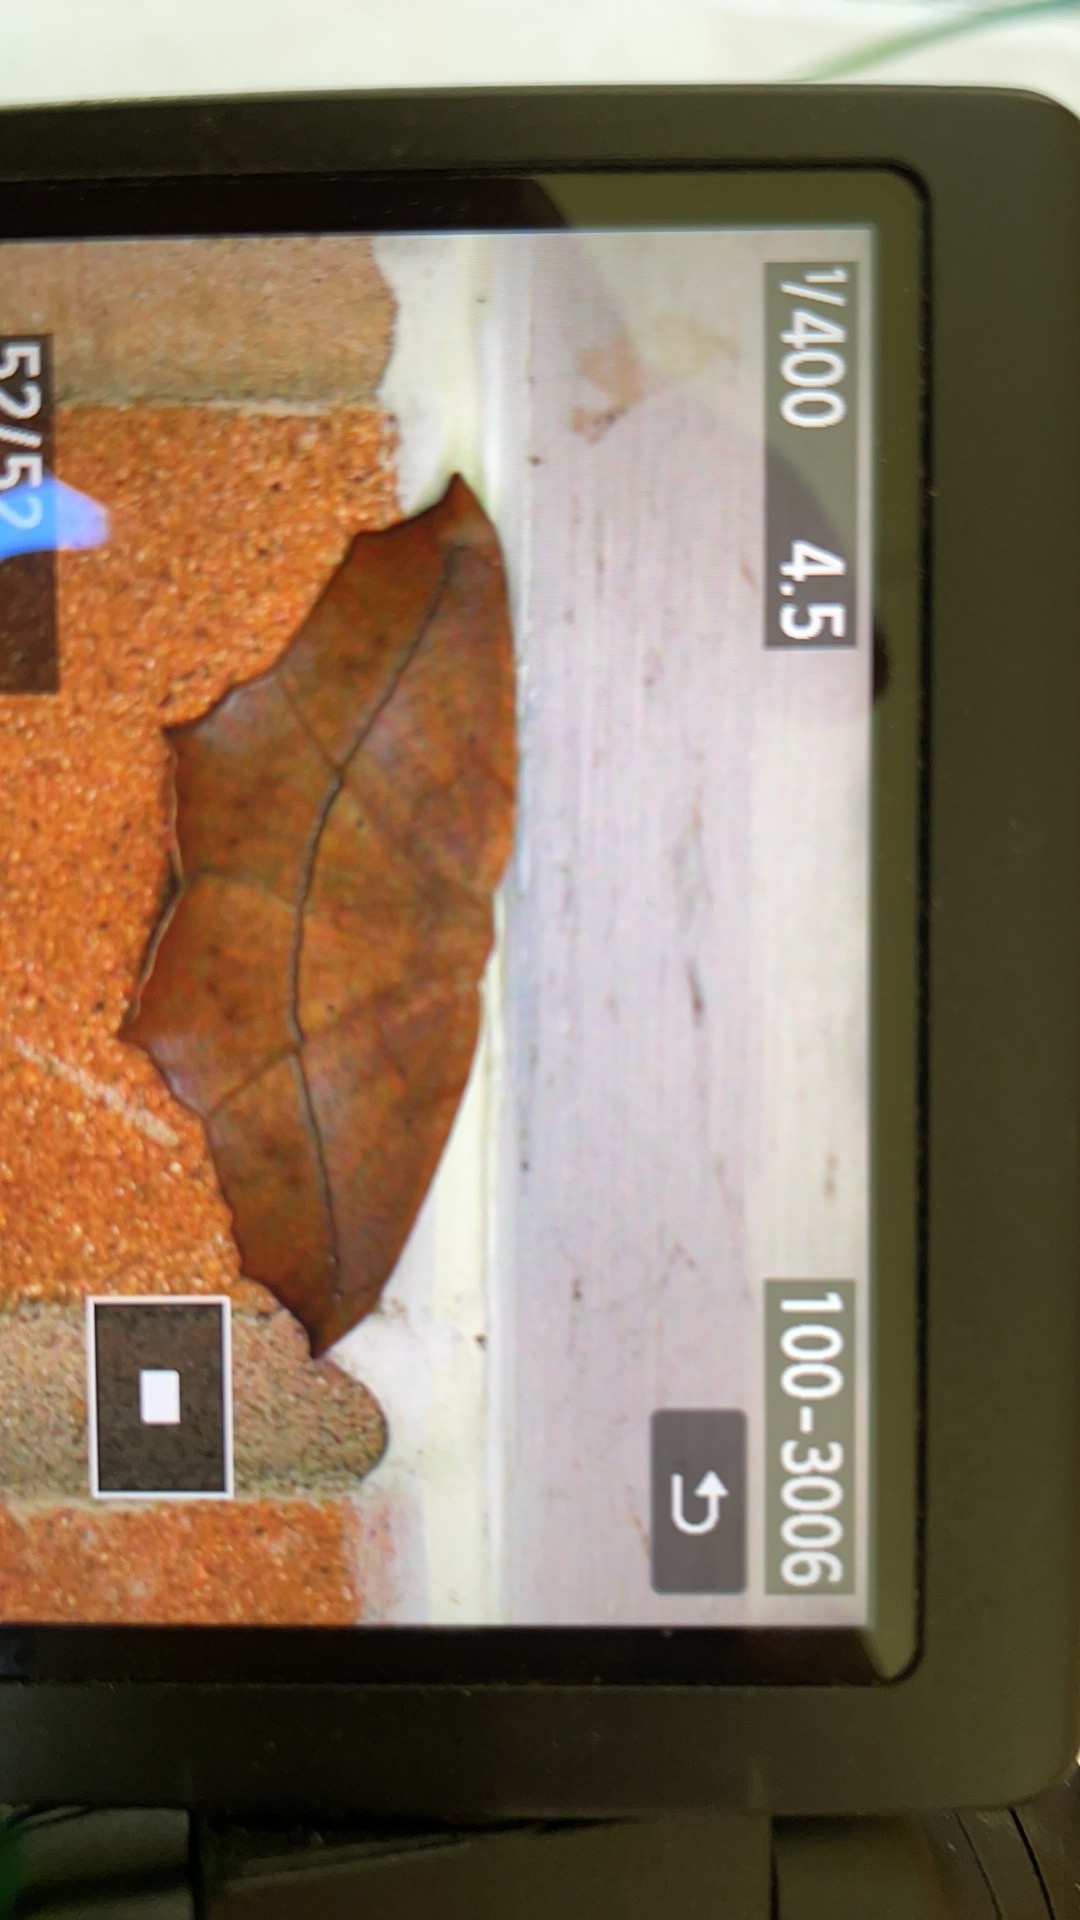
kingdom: Animalia
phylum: Arthropoda
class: Insecta
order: Lepidoptera
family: Geometridae
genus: Prochoerodes
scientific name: Prochoerodes lineola
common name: Large maple spanworm
